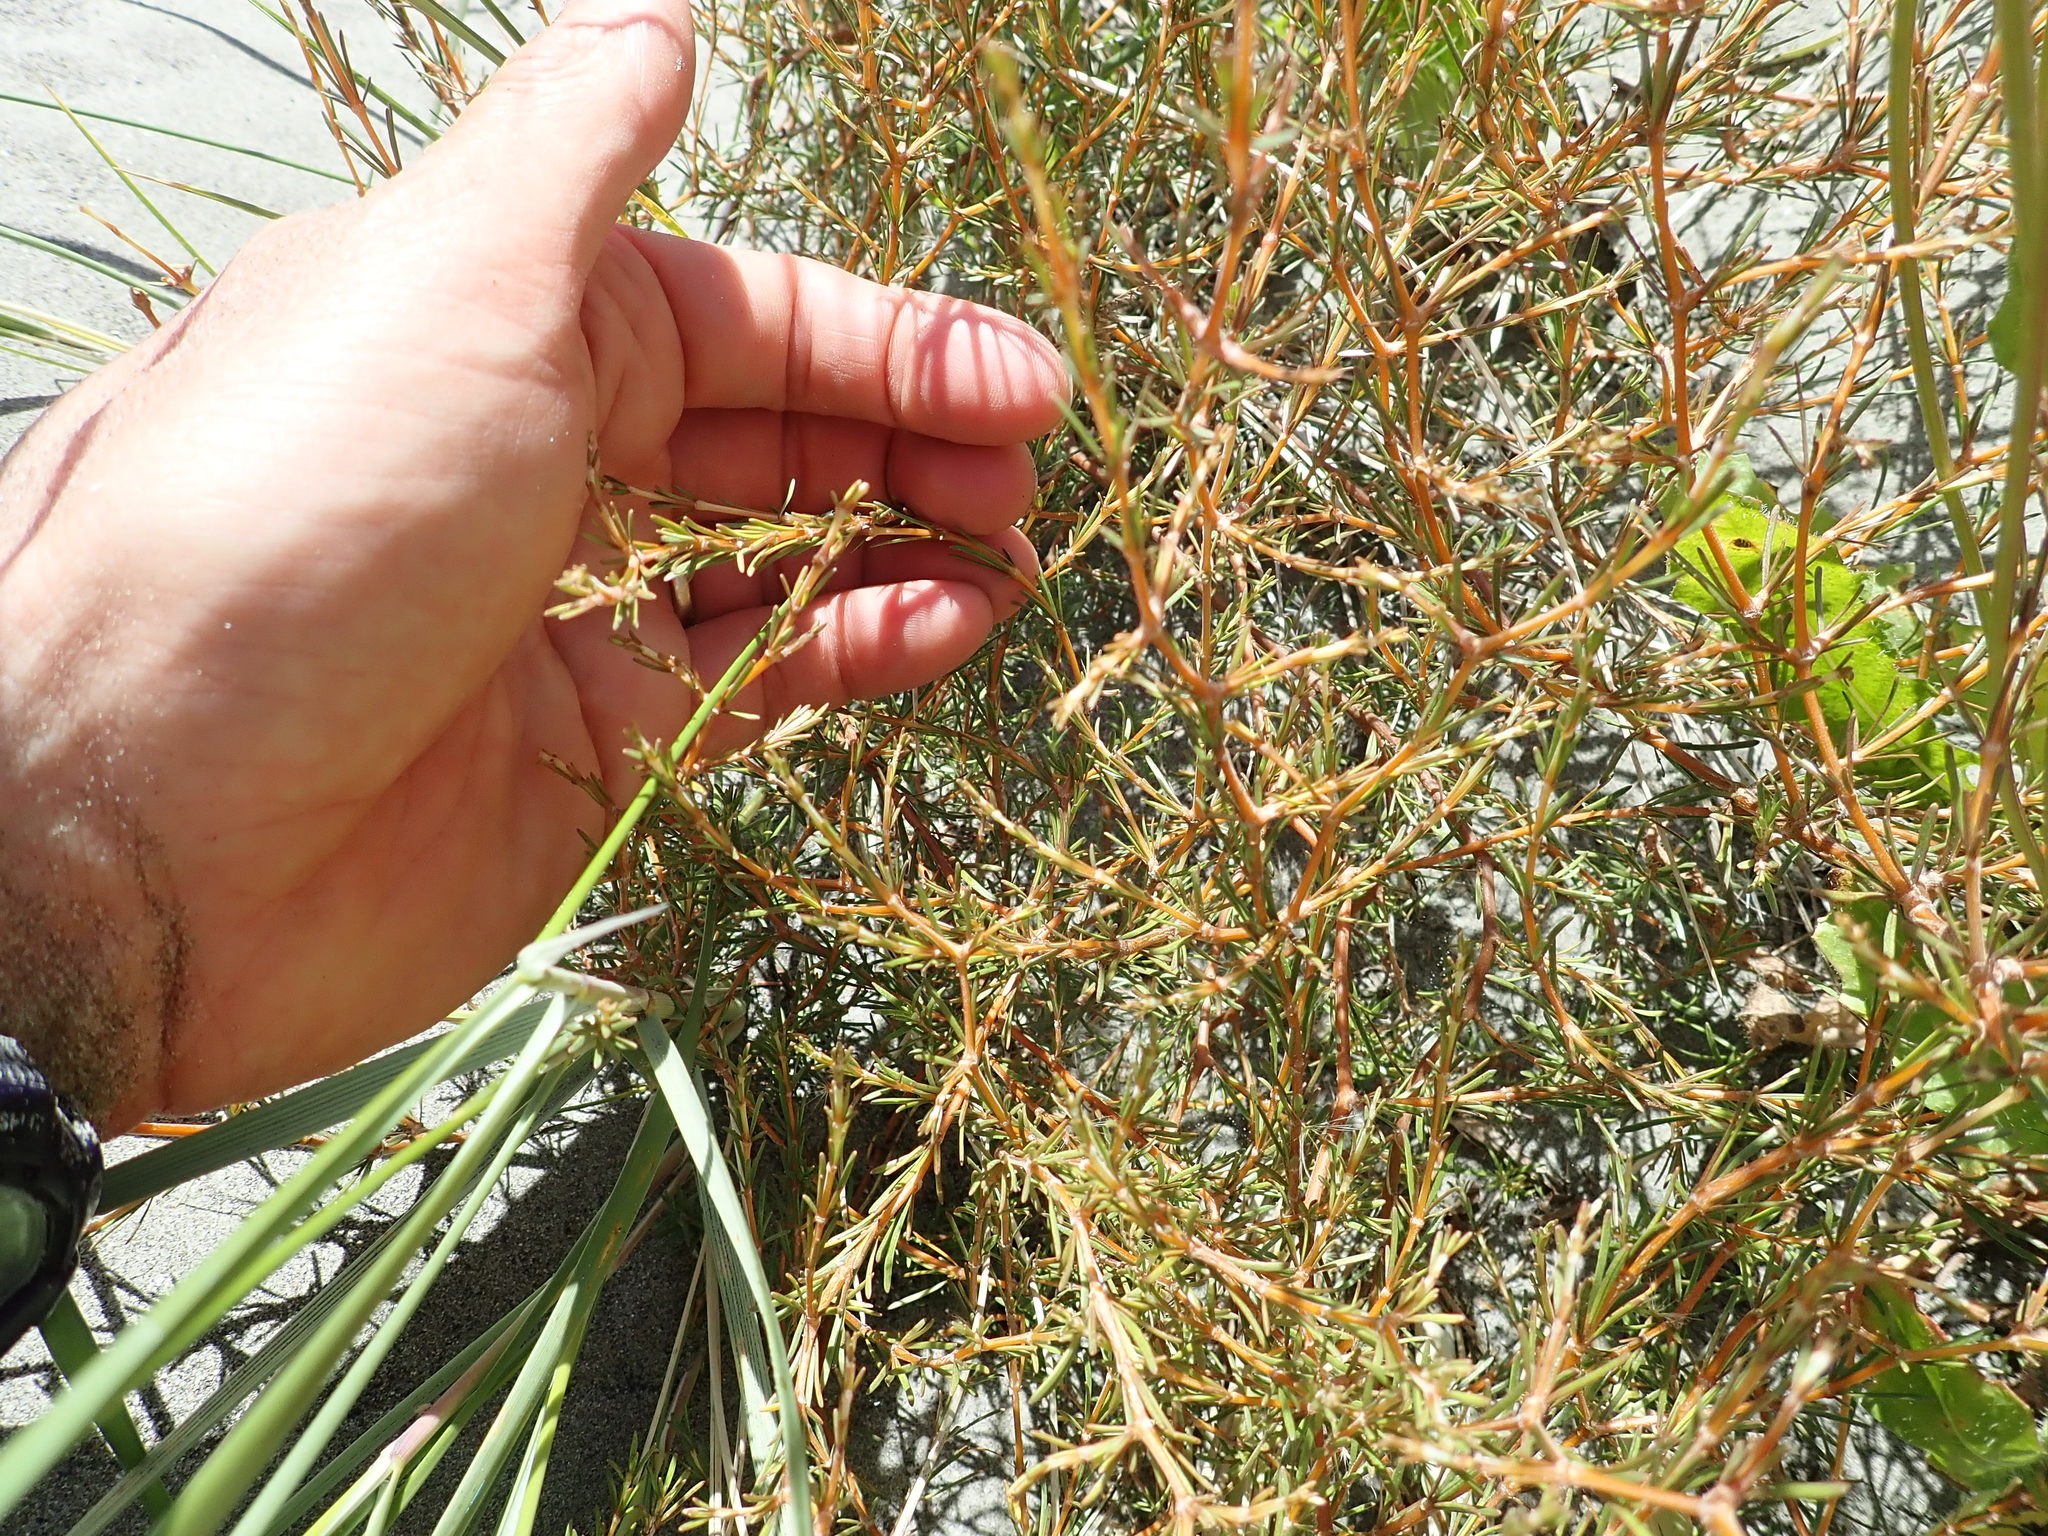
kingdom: Plantae
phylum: Tracheophyta
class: Magnoliopsida
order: Gentianales
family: Rubiaceae
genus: Coprosma
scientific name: Coprosma acerosa
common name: Sand coprosma
